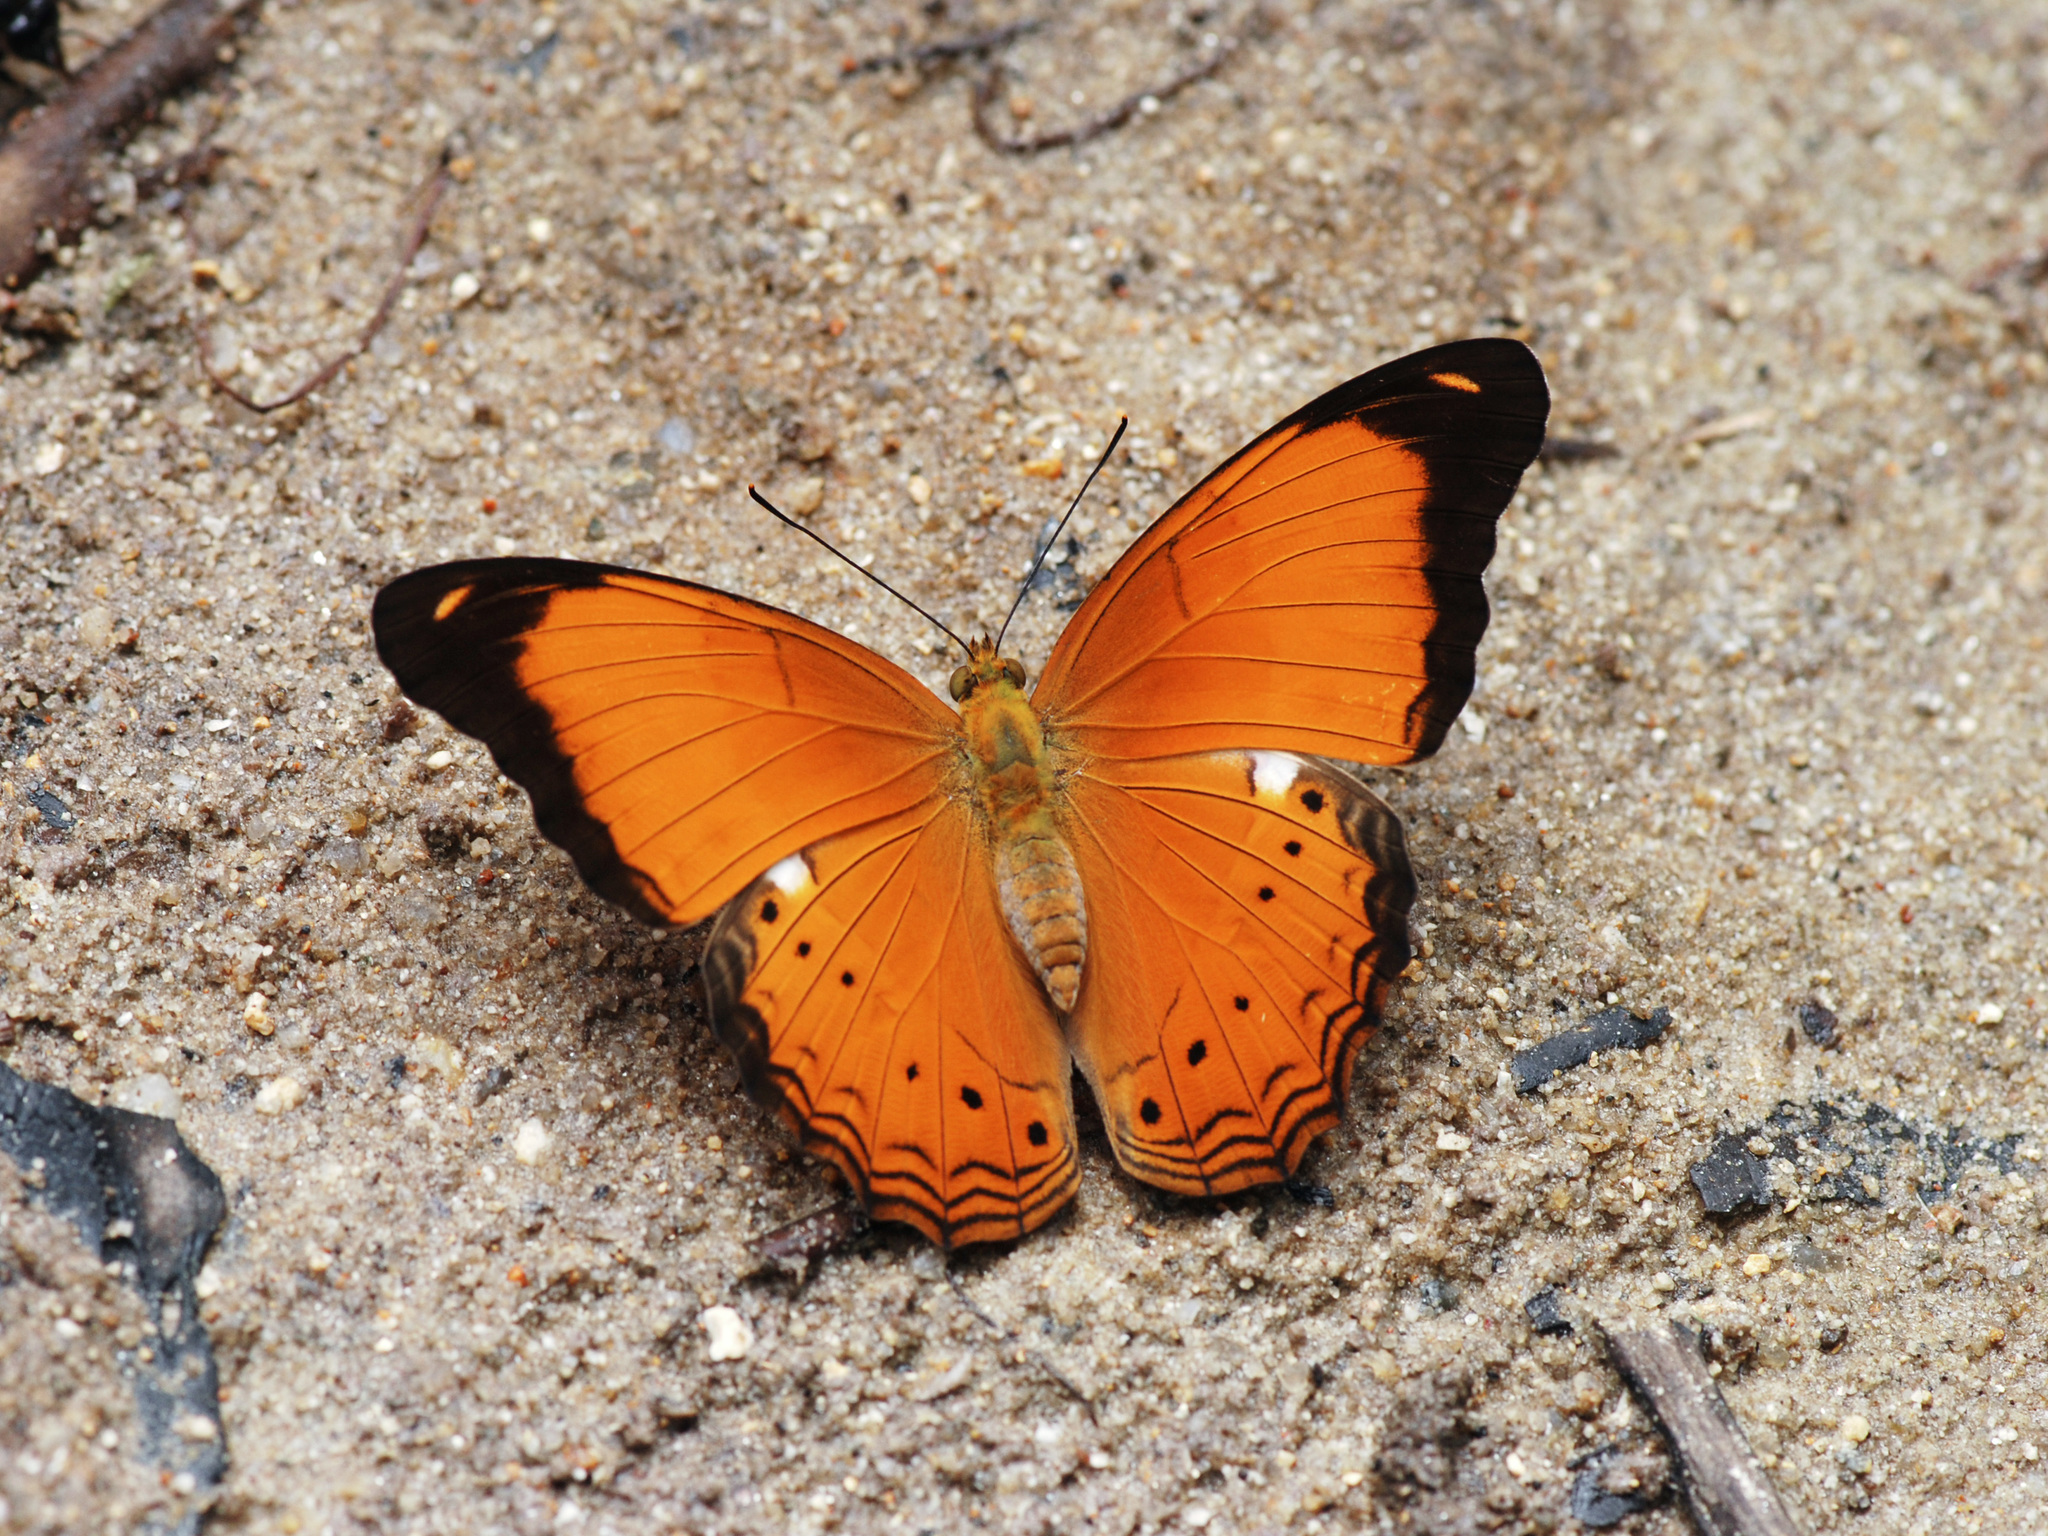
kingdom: Animalia
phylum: Arthropoda
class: Insecta
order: Lepidoptera
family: Nymphalidae
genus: Cirrochroa
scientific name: Cirrochroa emalea
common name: Malay yeoman
